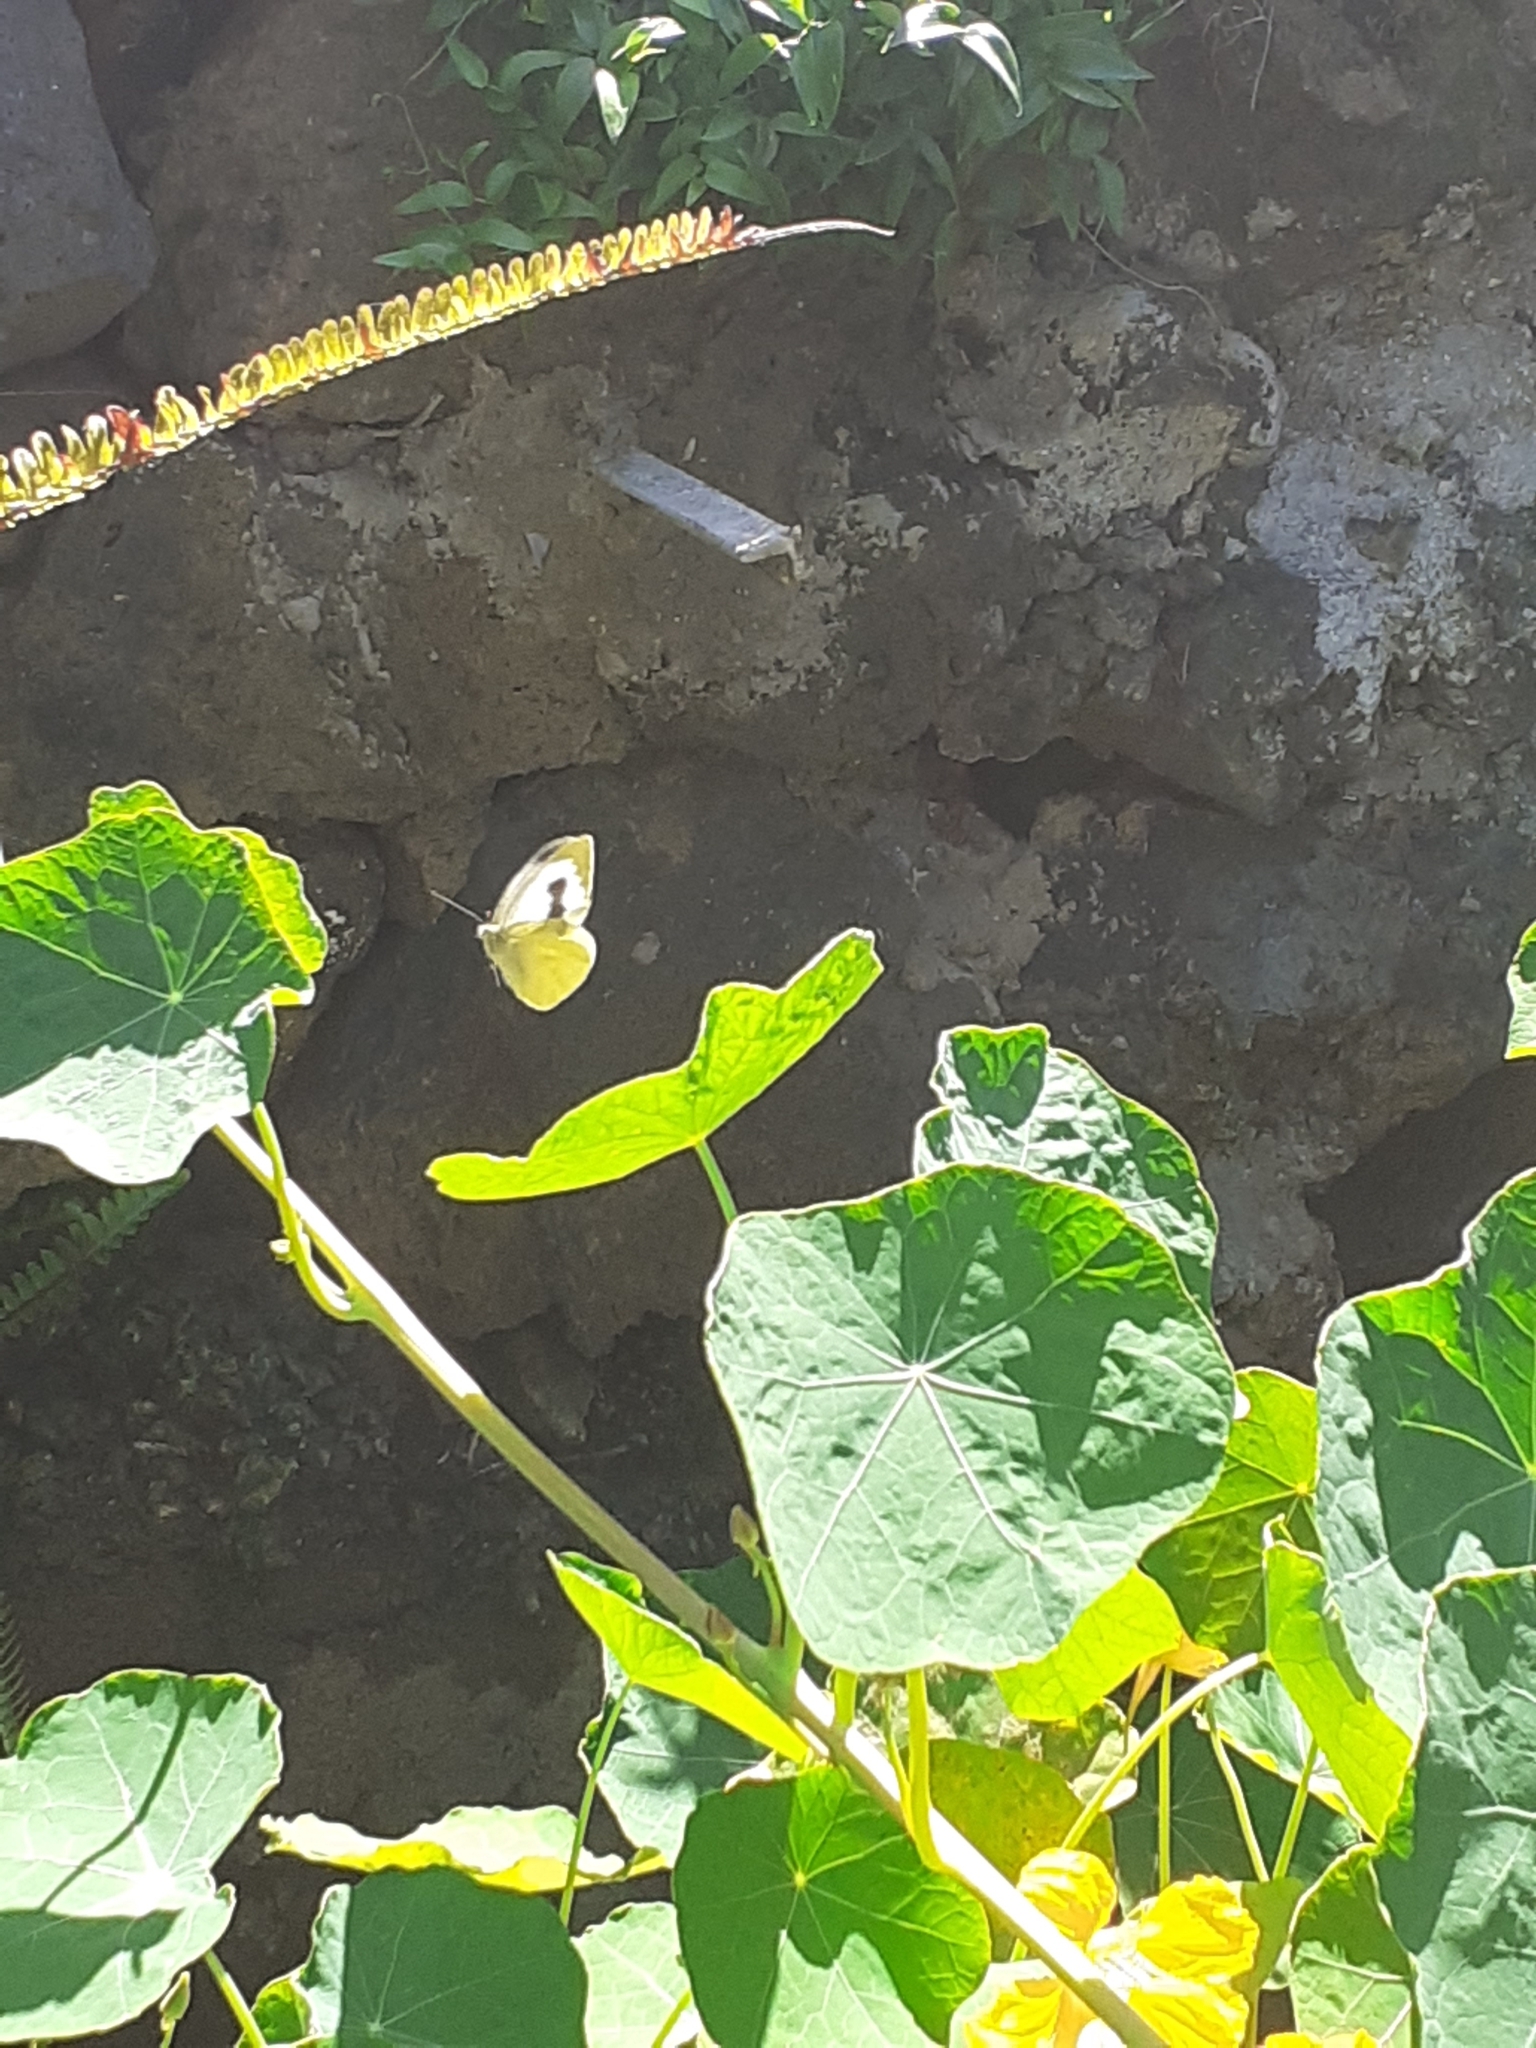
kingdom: Animalia
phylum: Arthropoda
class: Insecta
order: Lepidoptera
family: Pieridae
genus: Pieris
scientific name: Pieris cheiranthi
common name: Canary islands large white
